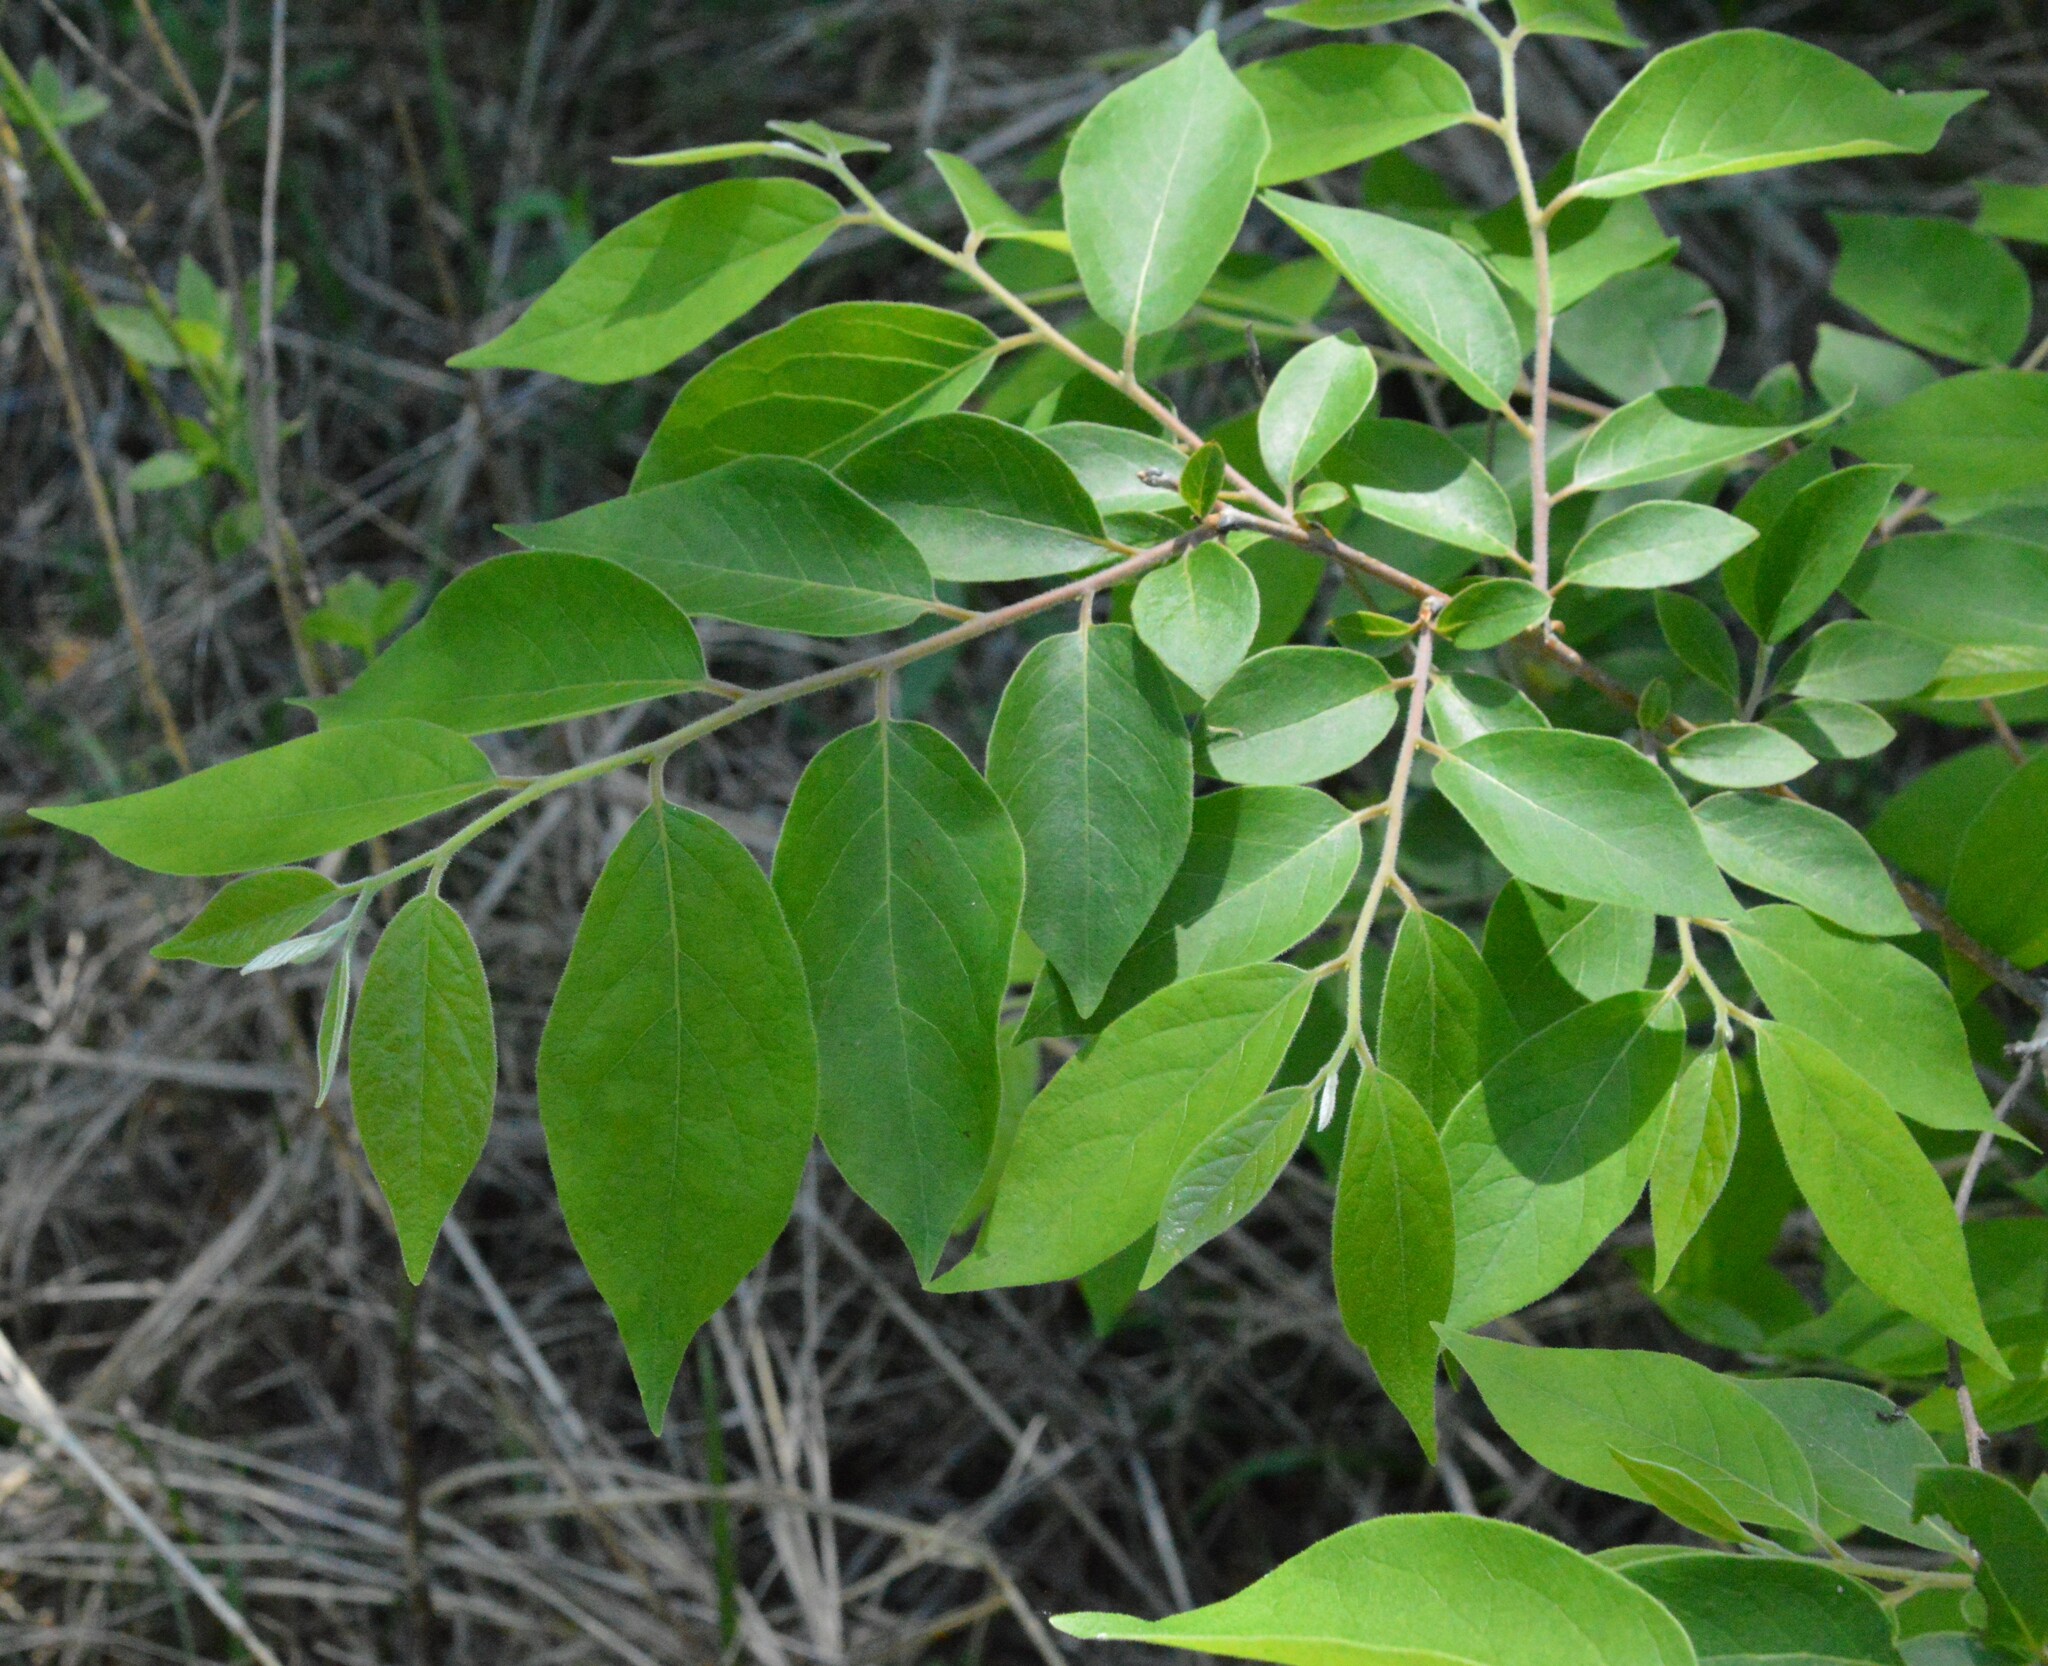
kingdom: Plantae
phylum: Tracheophyta
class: Magnoliopsida
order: Ericales
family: Ebenaceae
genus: Diospyros
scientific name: Diospyros virginiana
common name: Persimmon
